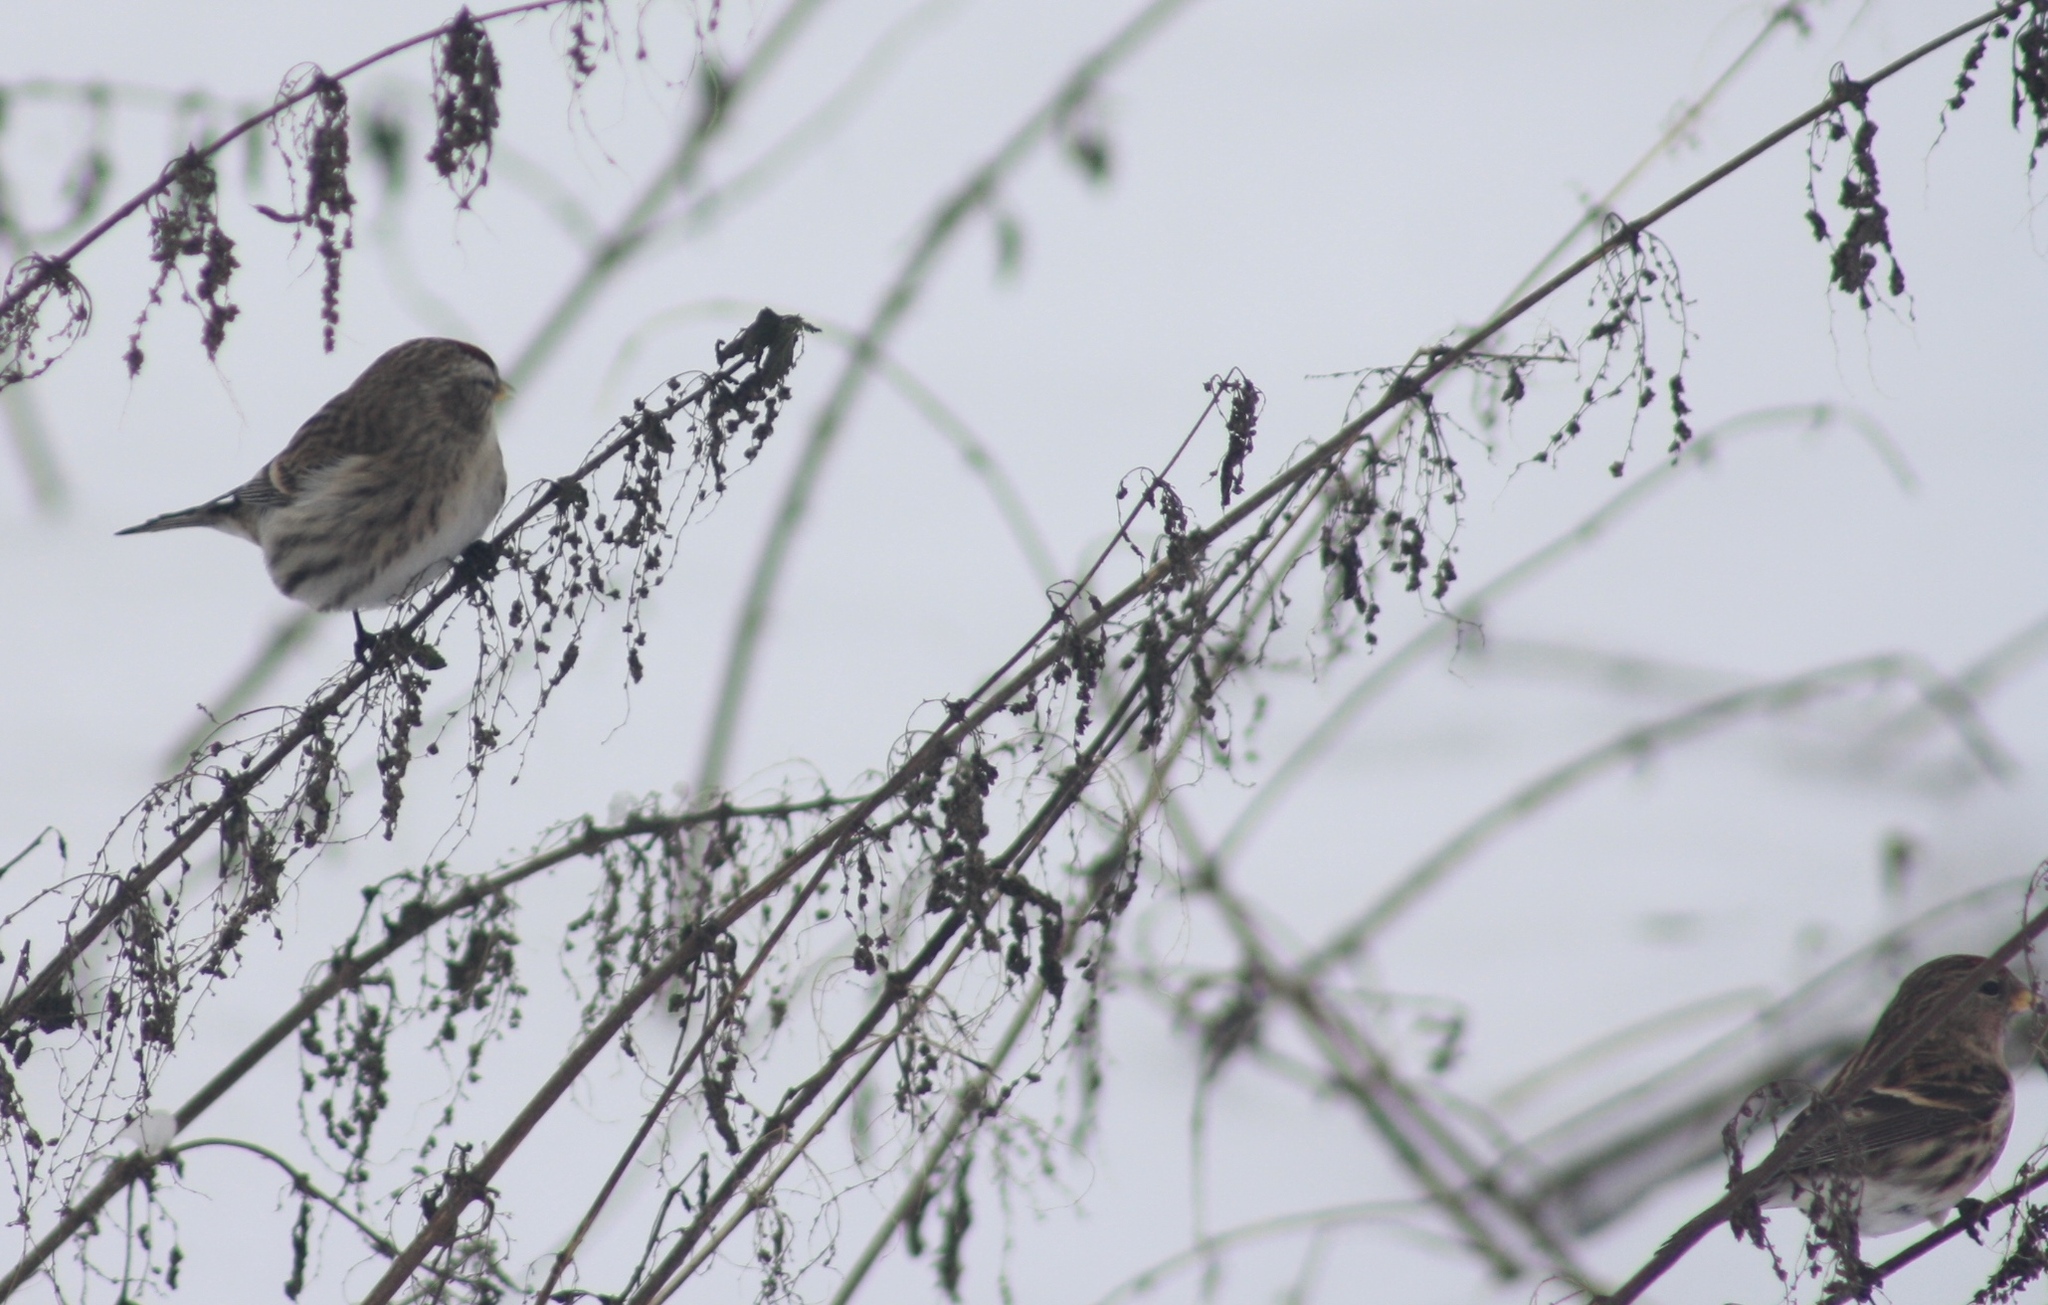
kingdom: Animalia
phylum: Chordata
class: Aves
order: Passeriformes
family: Fringillidae
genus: Acanthis
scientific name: Acanthis flammea
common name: Common redpoll
